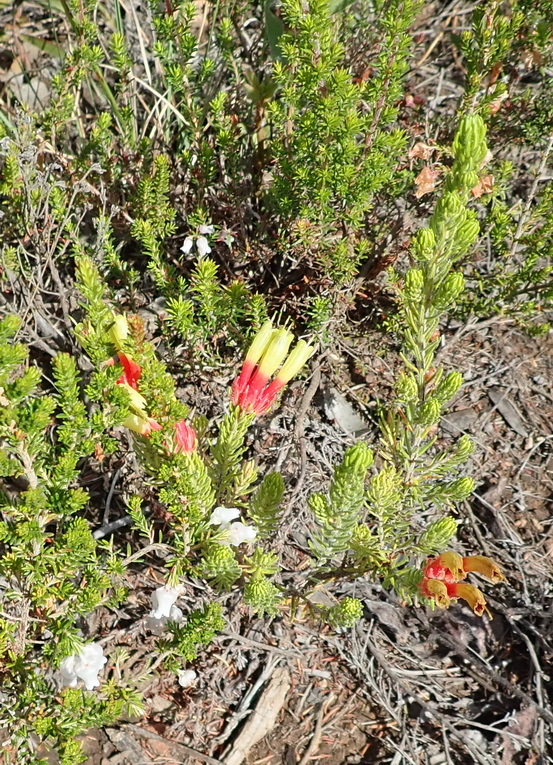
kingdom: Plantae
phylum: Tracheophyta
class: Magnoliopsida
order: Ericales
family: Ericaceae
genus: Erica
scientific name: Erica unicolor
